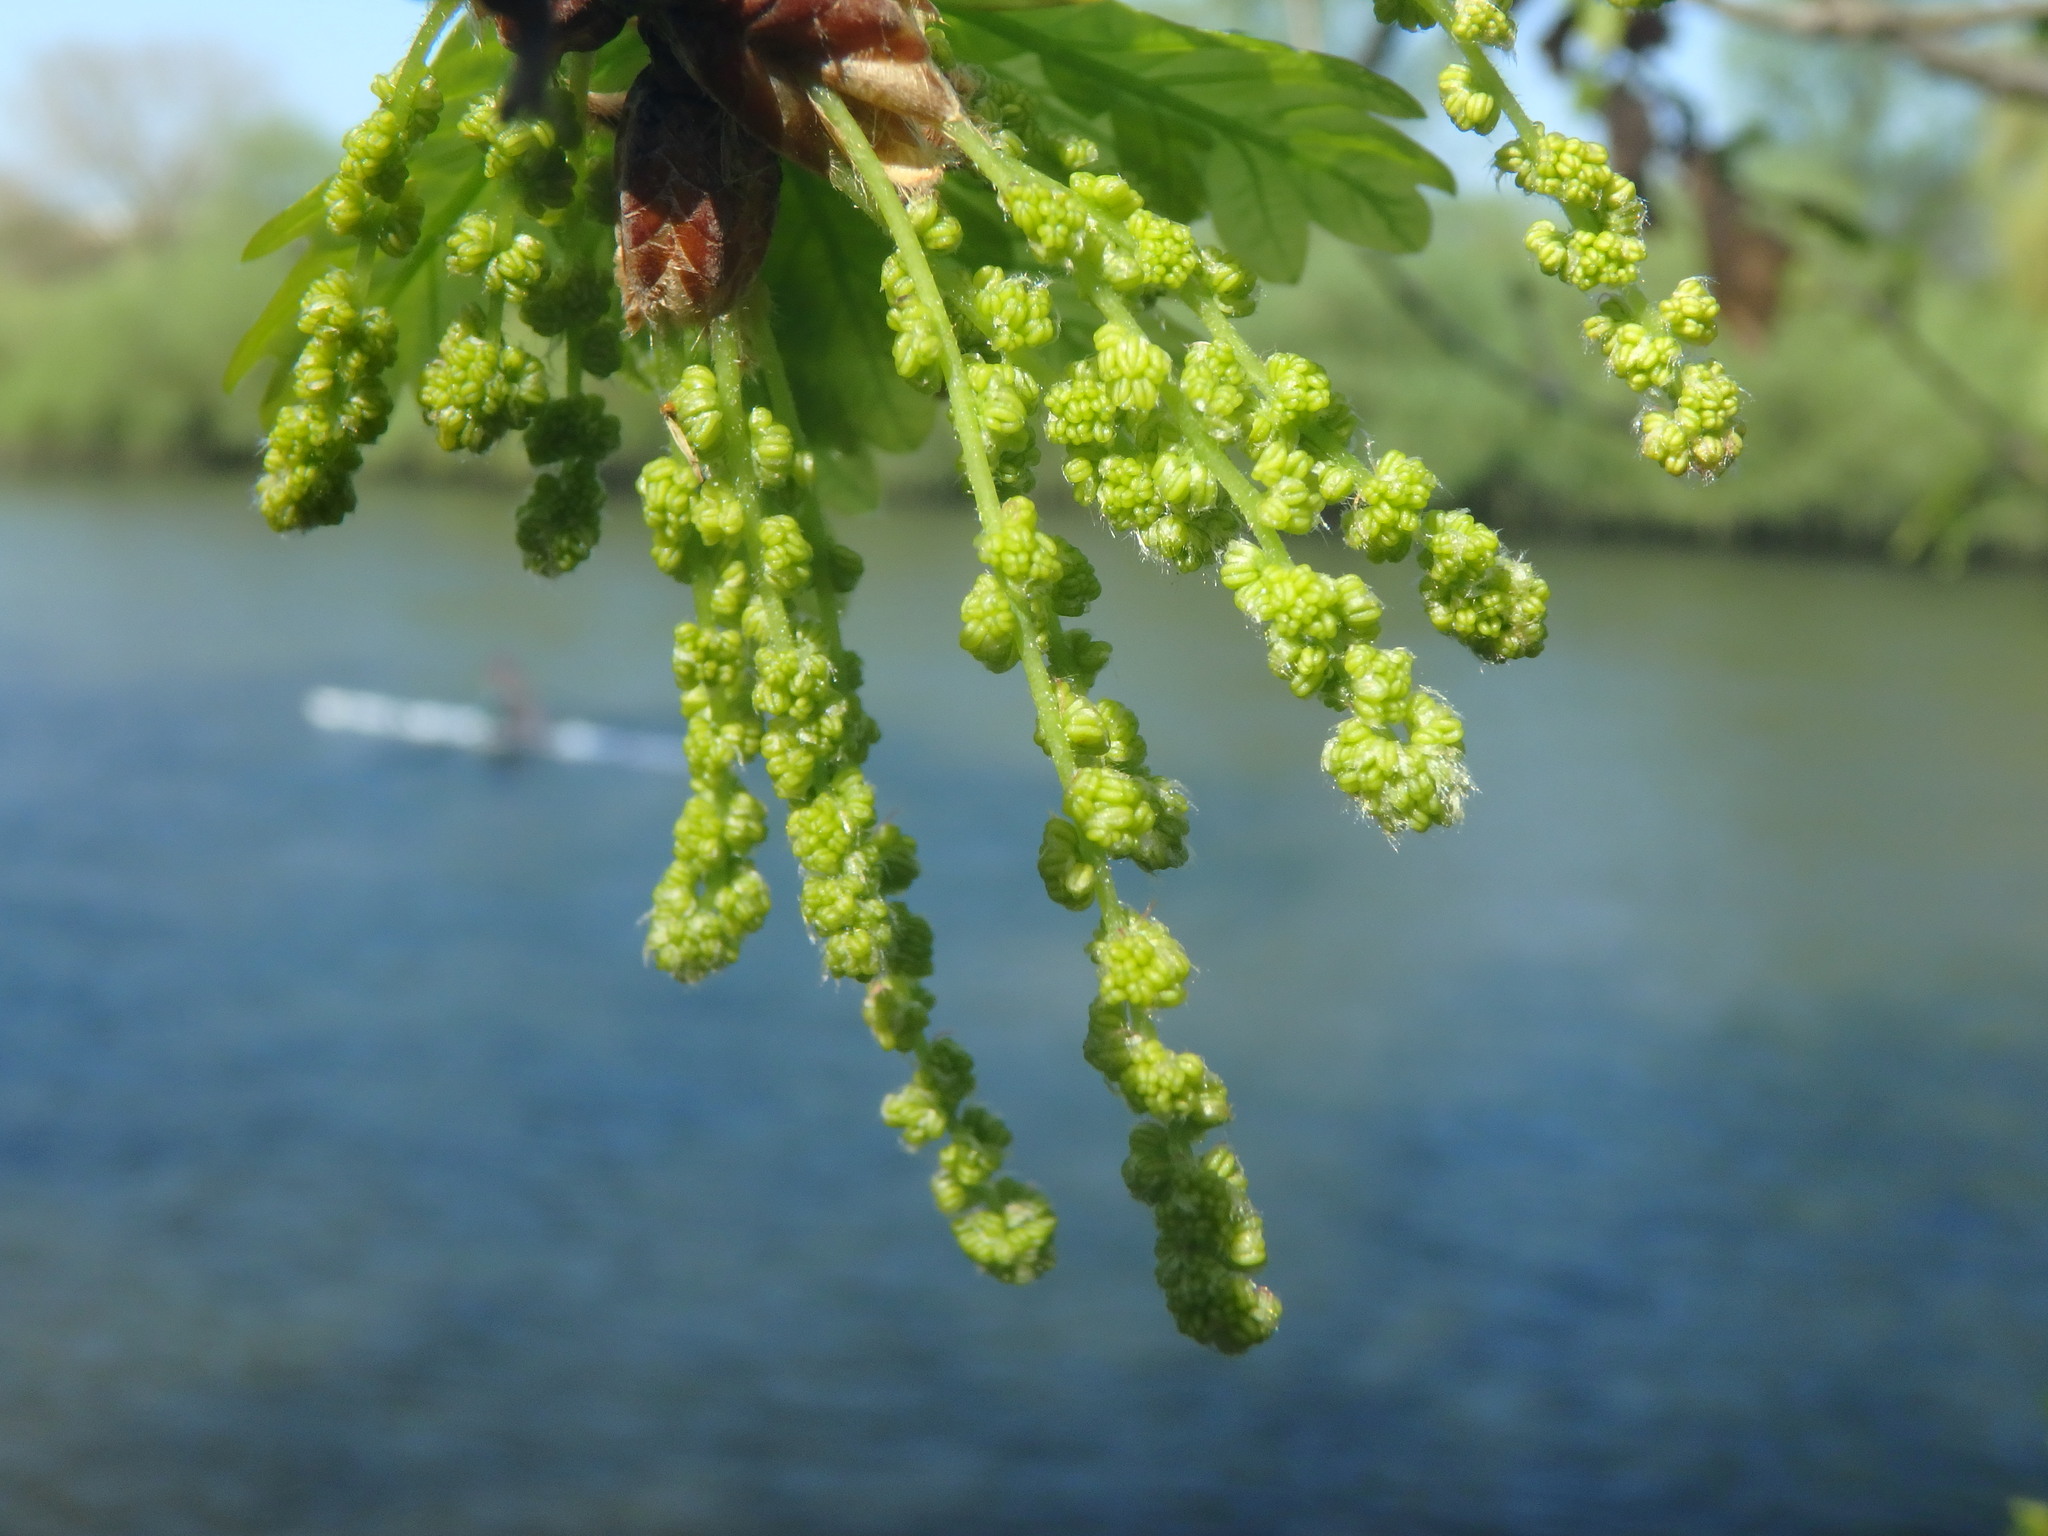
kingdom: Plantae
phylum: Tracheophyta
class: Magnoliopsida
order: Fagales
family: Fagaceae
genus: Quercus
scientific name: Quercus robur
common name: Pedunculate oak
